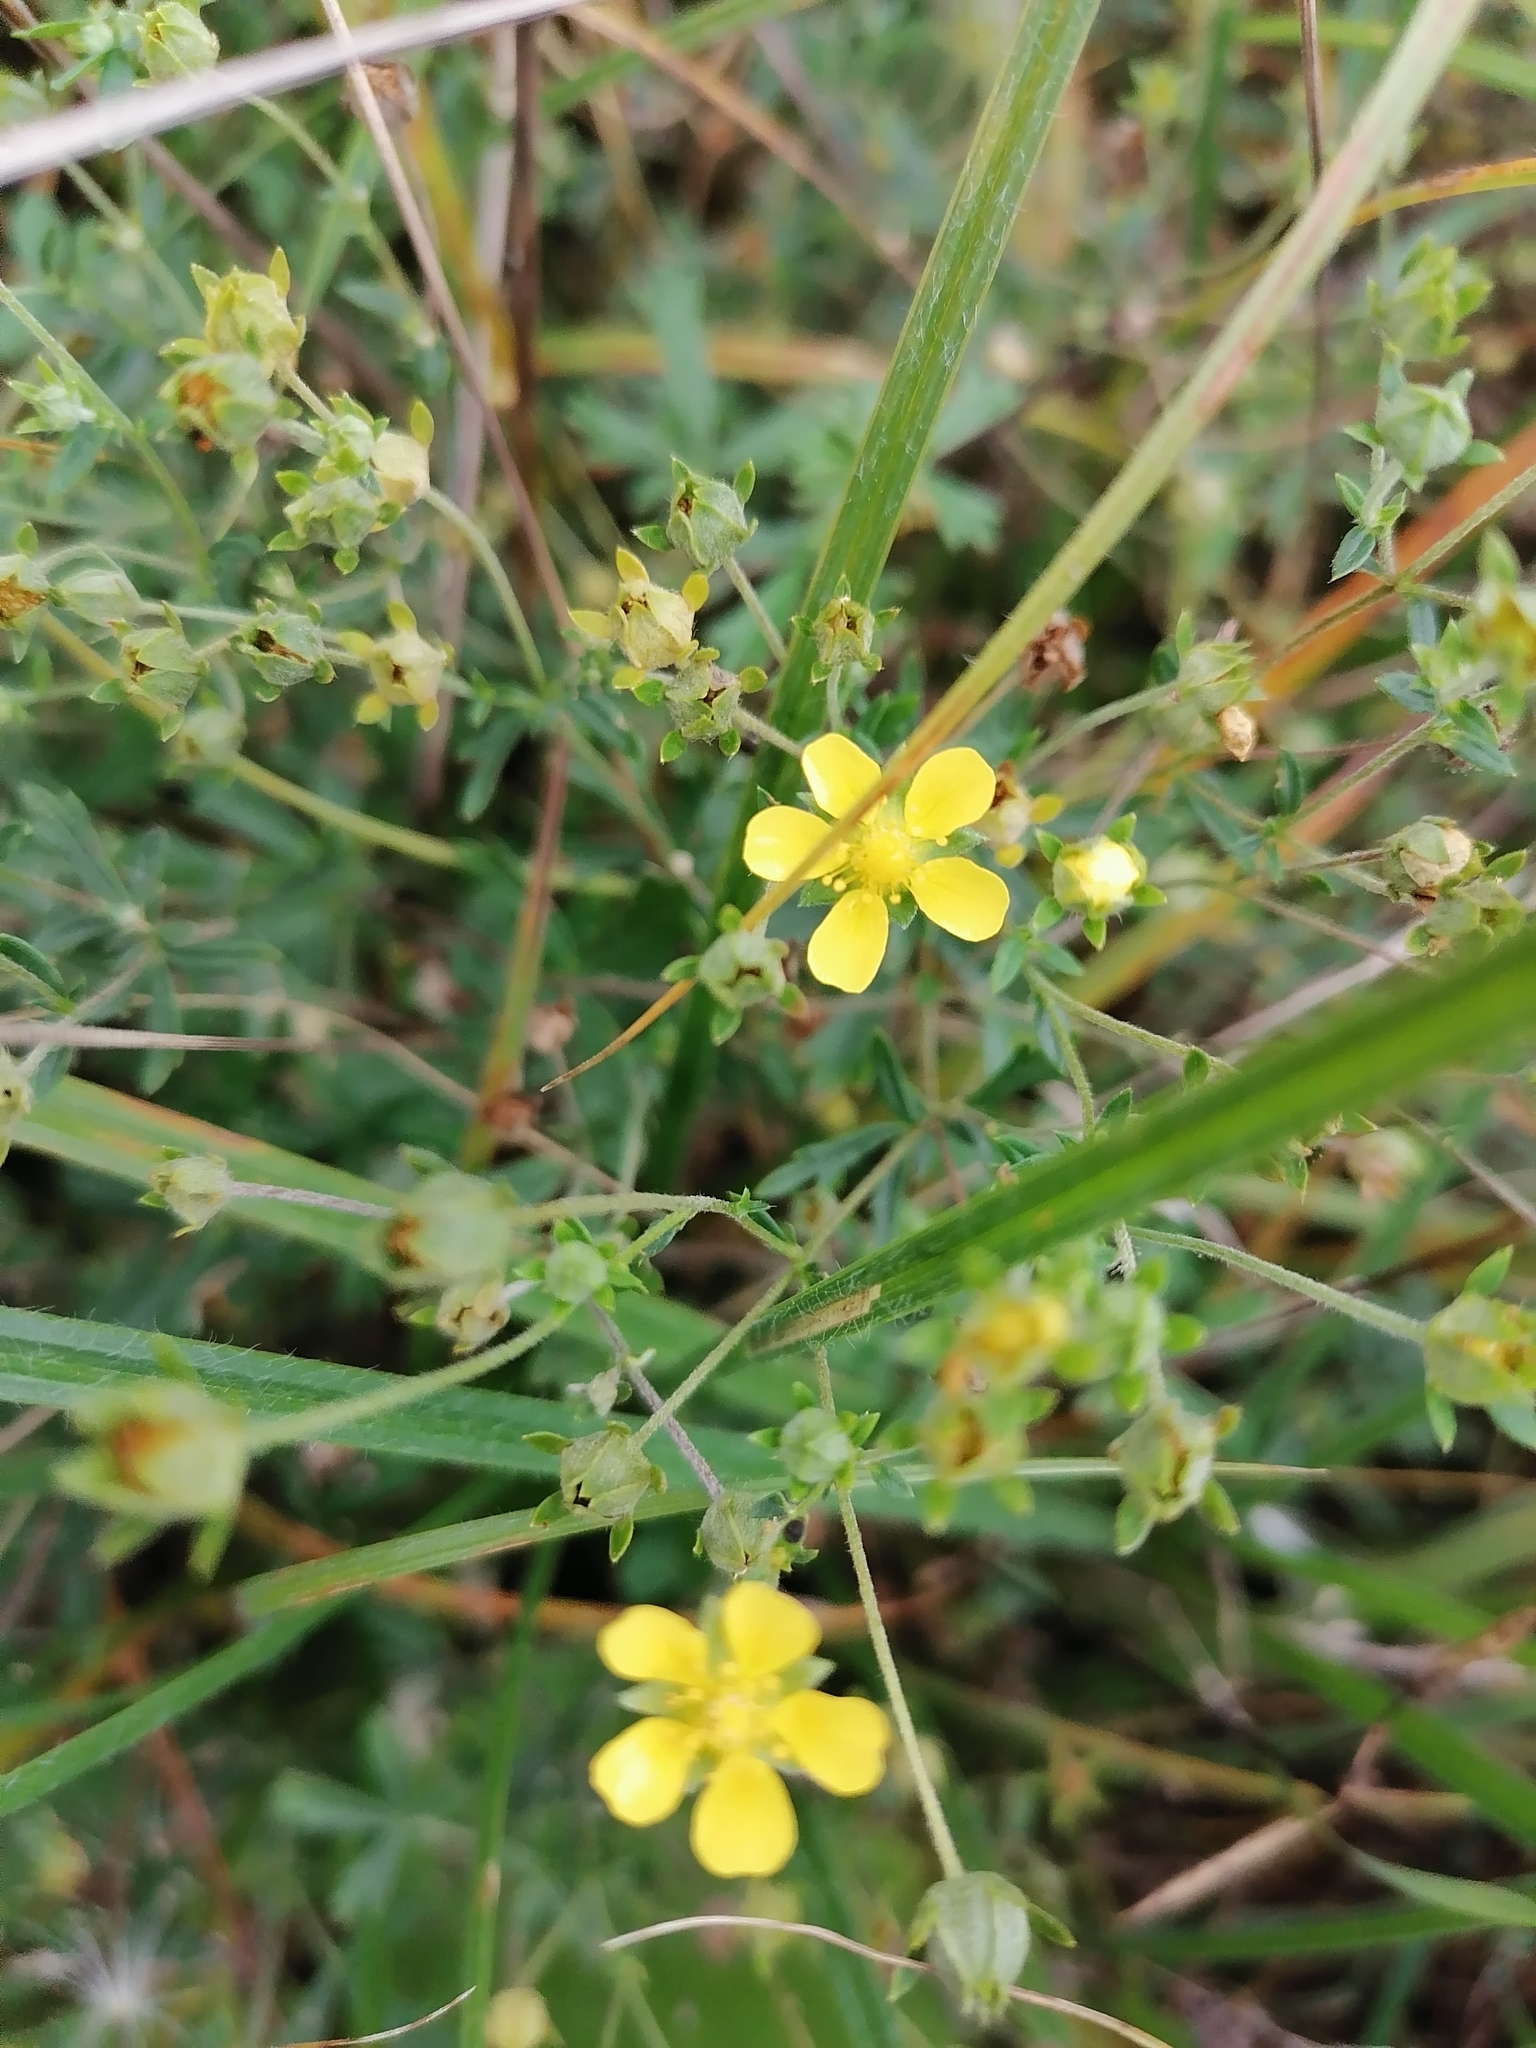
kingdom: Plantae
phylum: Tracheophyta
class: Magnoliopsida
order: Rosales
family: Rosaceae
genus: Potentilla
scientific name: Potentilla argentea
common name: Hoary cinquefoil
